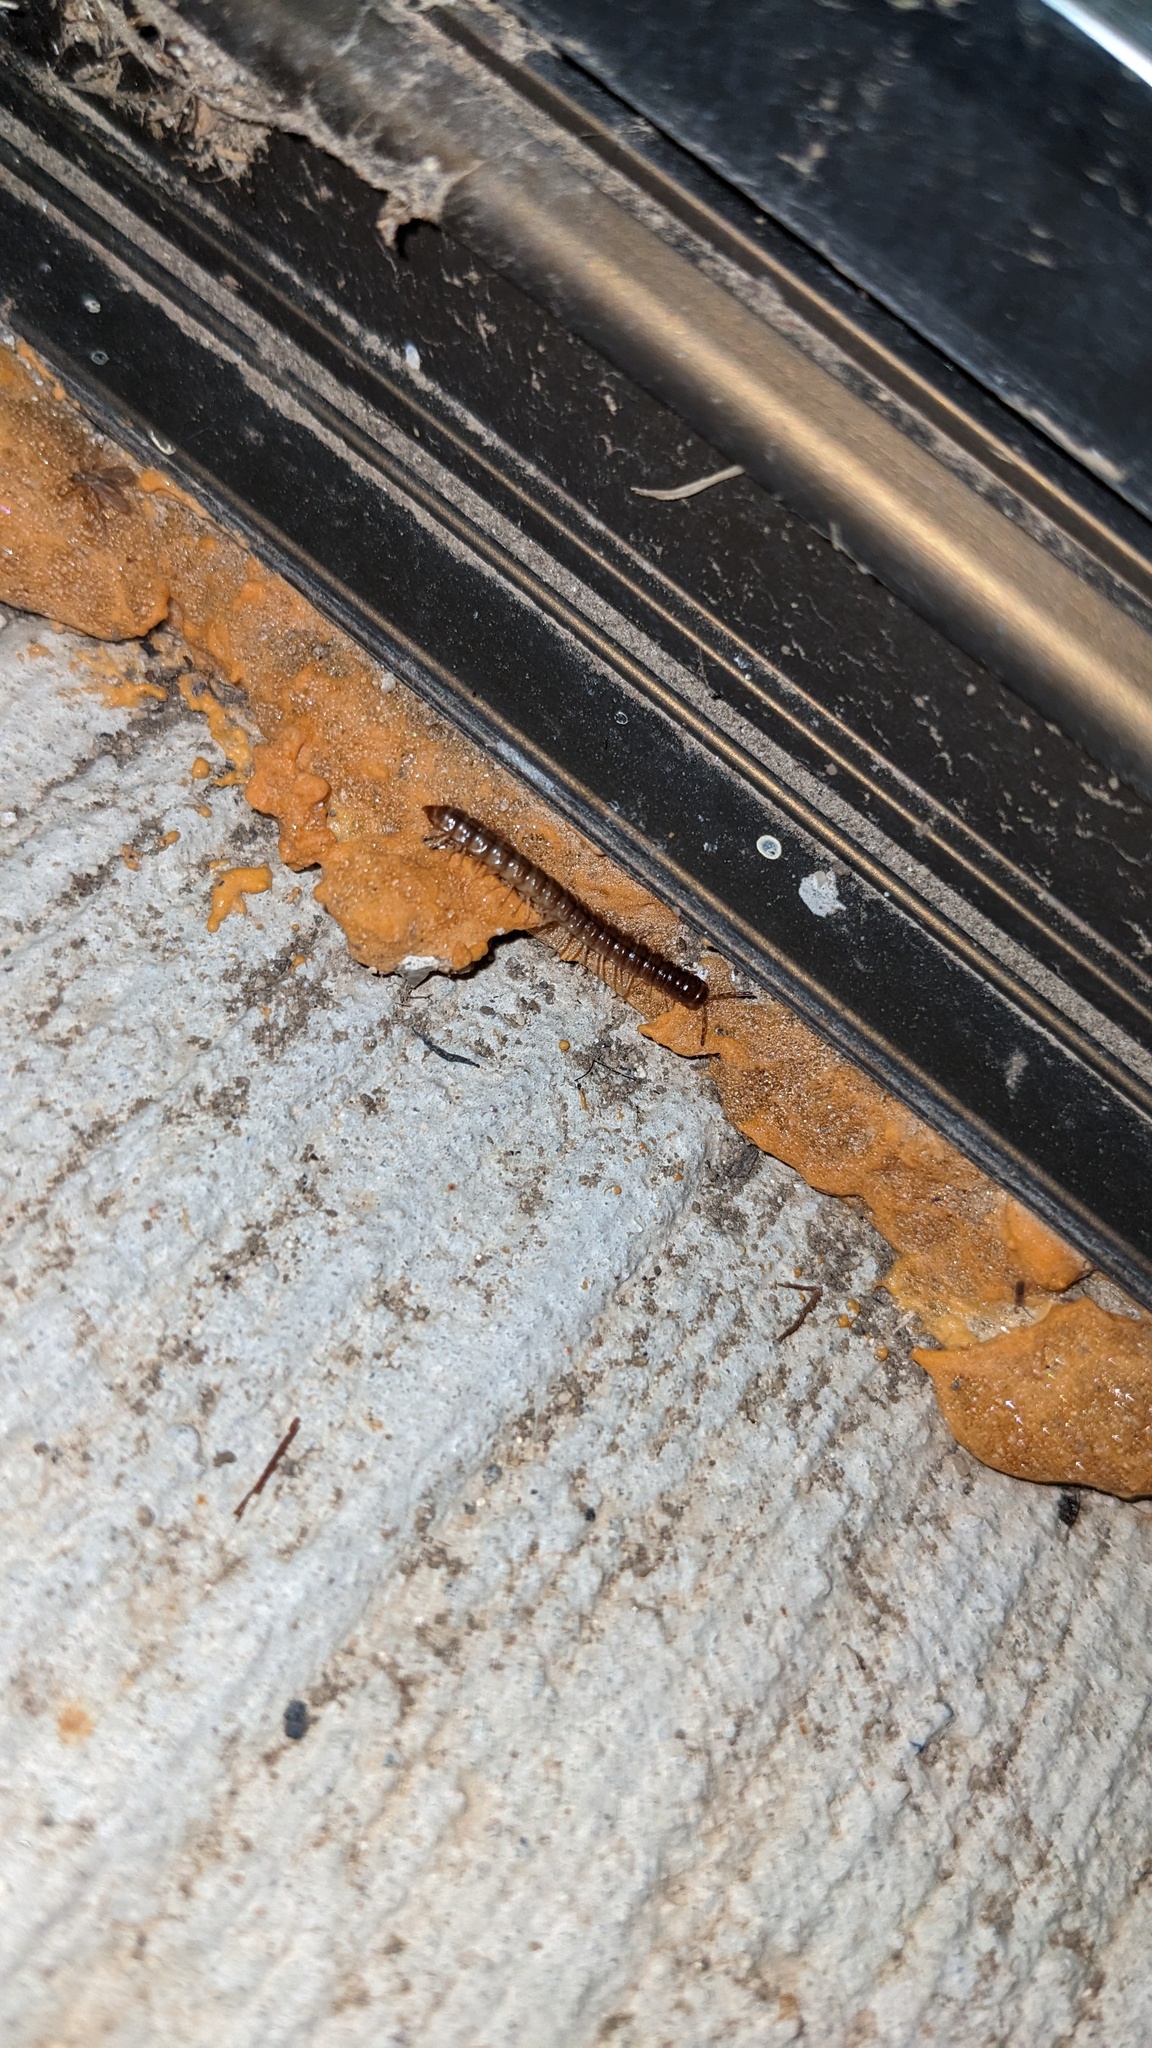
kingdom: Animalia
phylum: Arthropoda
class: Diplopoda
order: Polydesmida
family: Paradoxosomatidae
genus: Oxidus
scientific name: Oxidus gracilis
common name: Greenhouse millipede
